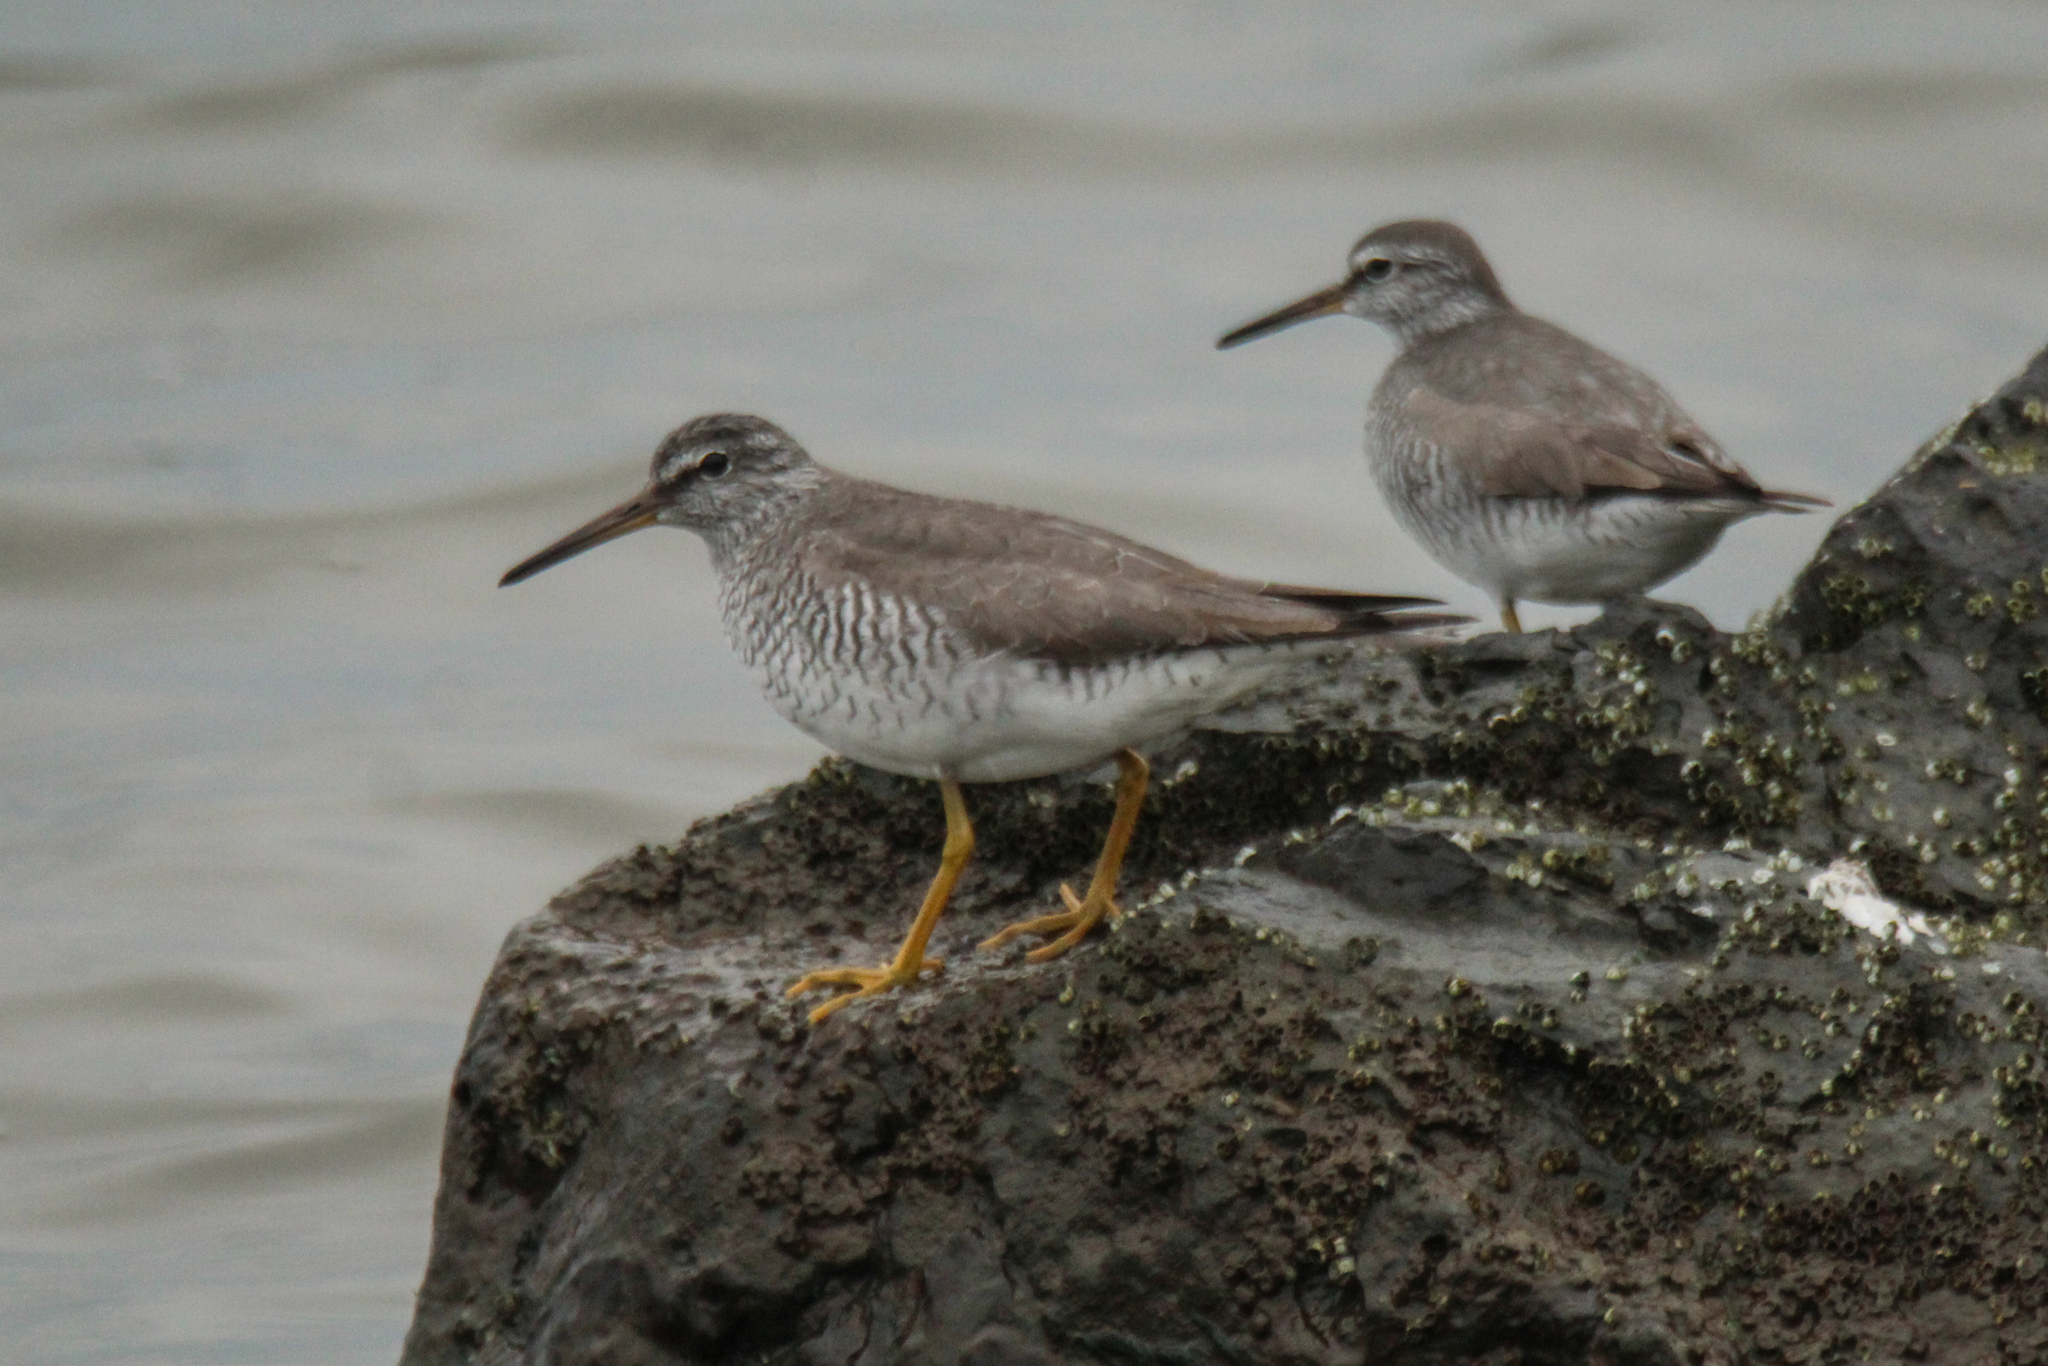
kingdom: Animalia
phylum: Chordata
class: Aves
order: Charadriiformes
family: Scolopacidae
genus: Tringa
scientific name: Tringa brevipes
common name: Grey-tailed tattler
